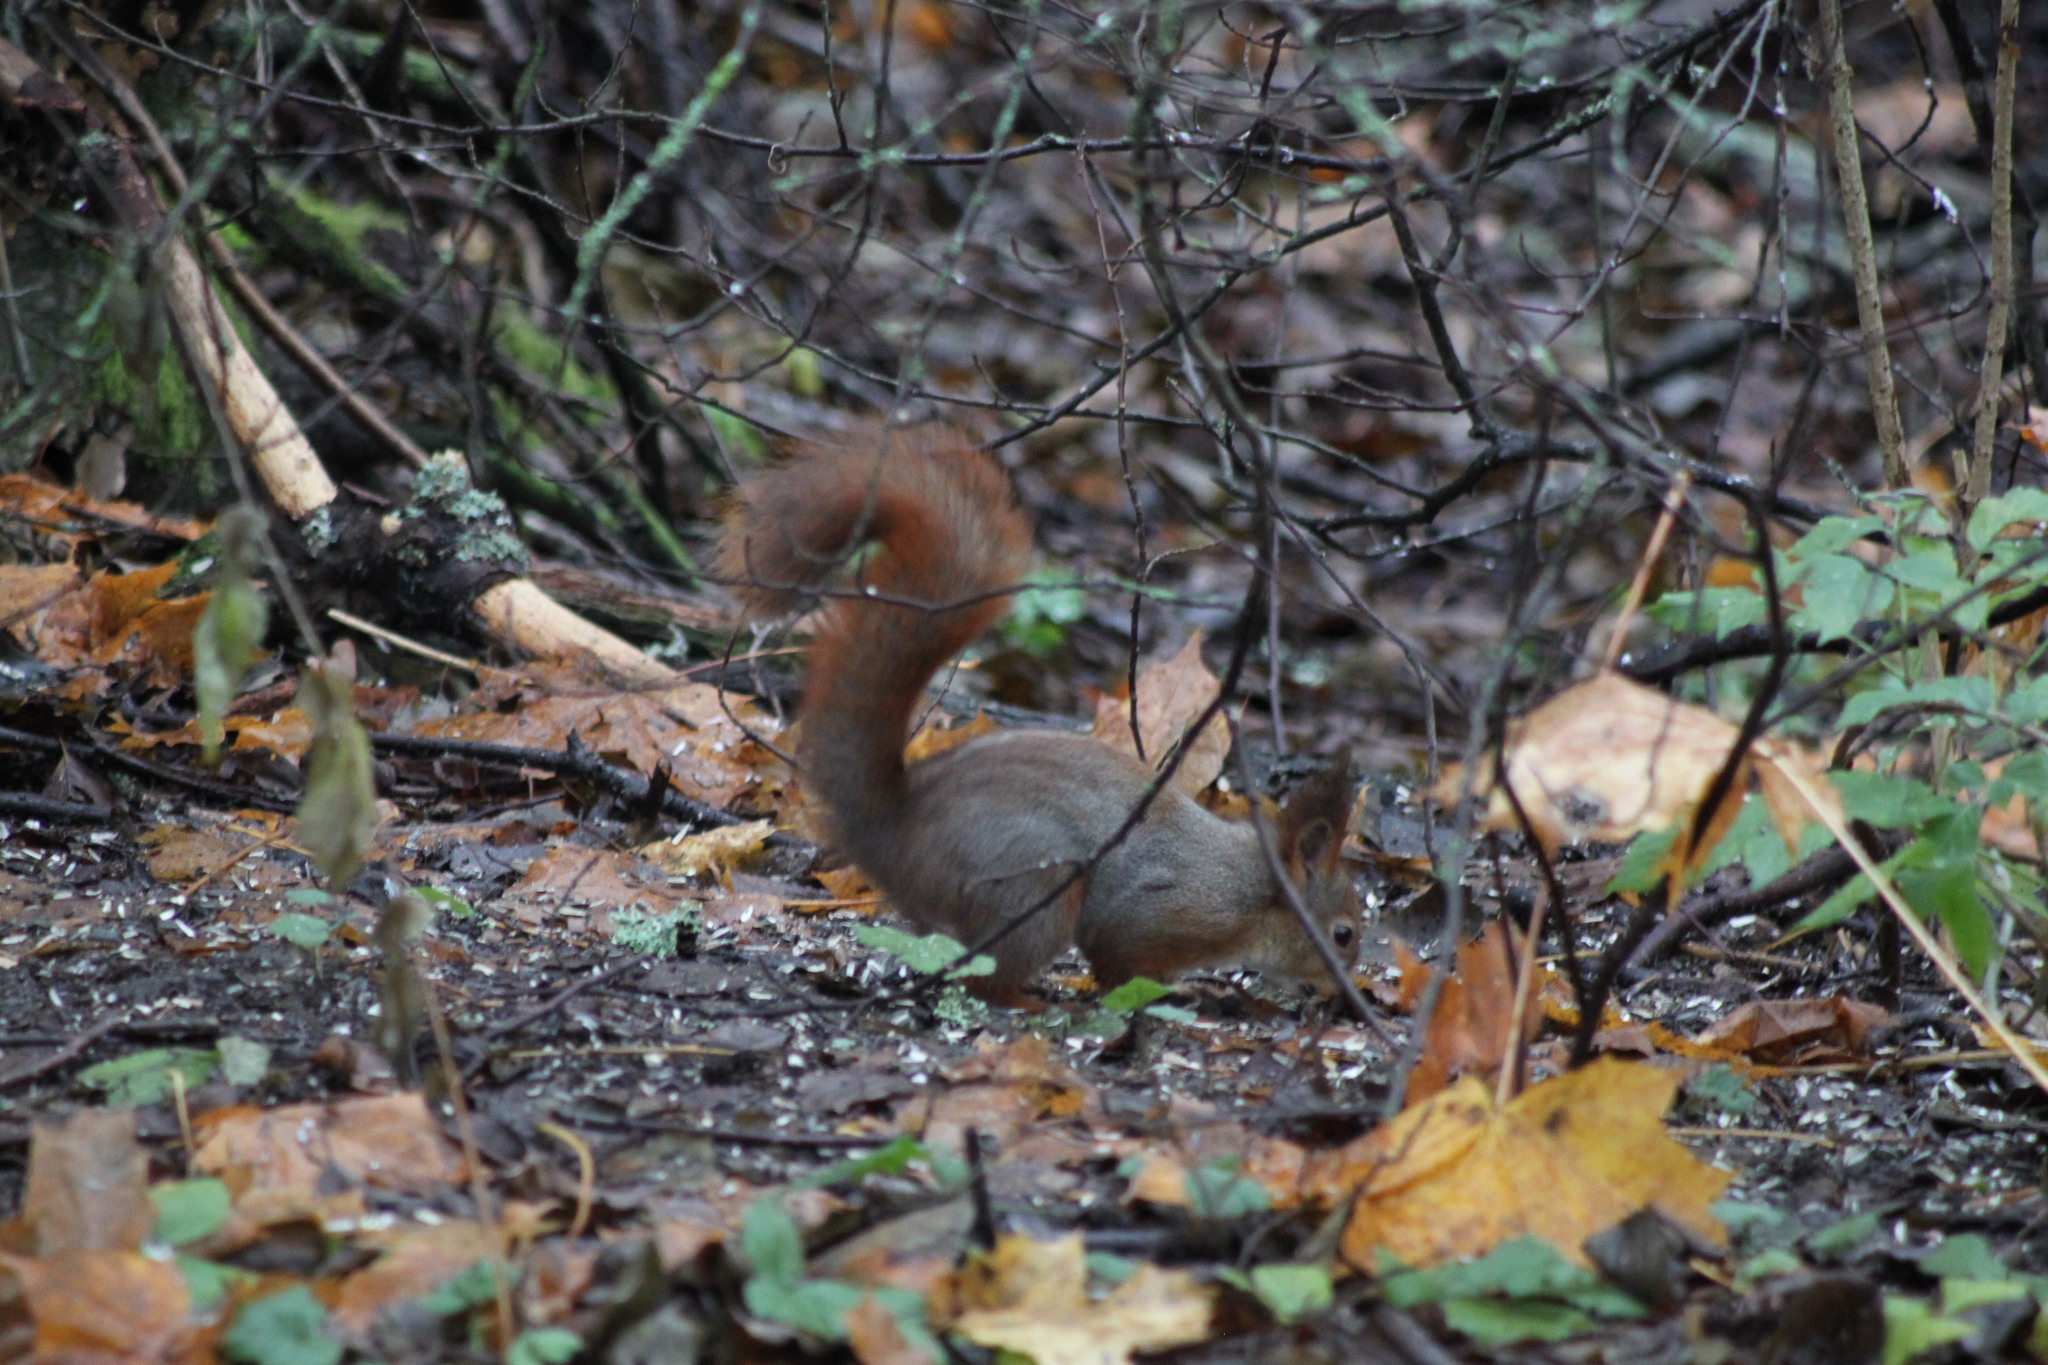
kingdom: Animalia
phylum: Chordata
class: Mammalia
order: Rodentia
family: Sciuridae
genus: Sciurus
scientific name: Sciurus vulgaris
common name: Eurasian red squirrel
